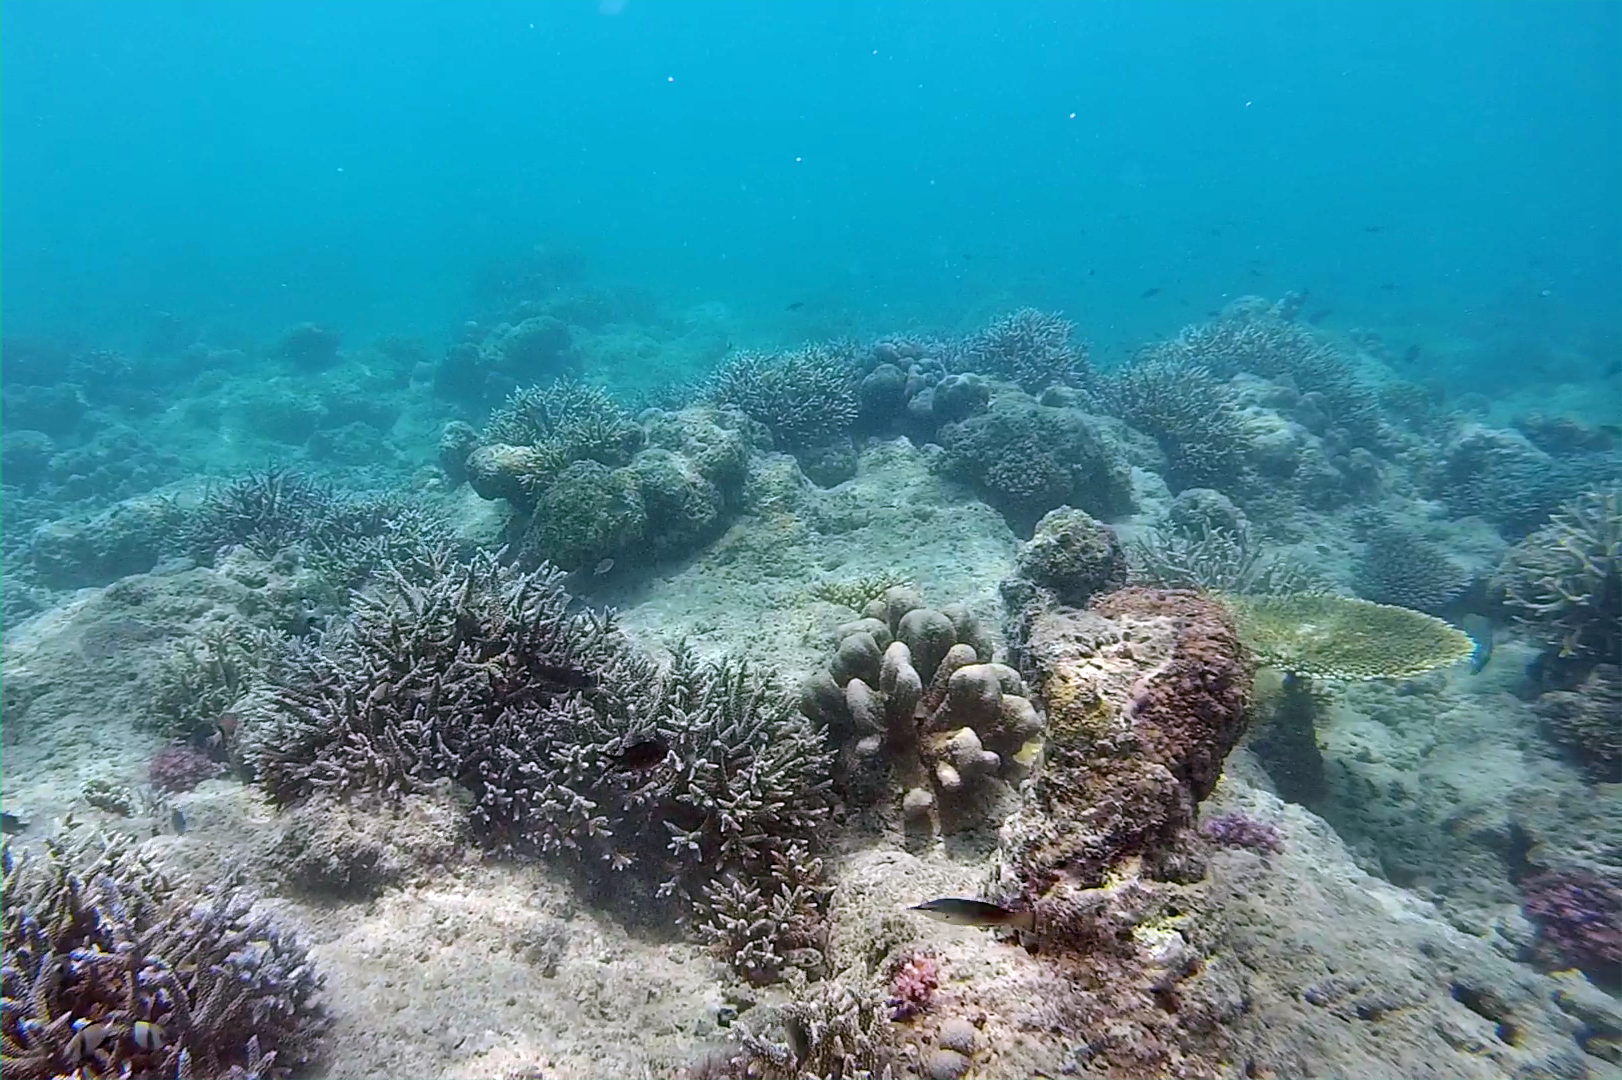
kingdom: Animalia
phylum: Chordata
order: Perciformes
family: Labridae
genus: Gomphosus
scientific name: Gomphosus caeruleus
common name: Bird wrasse
